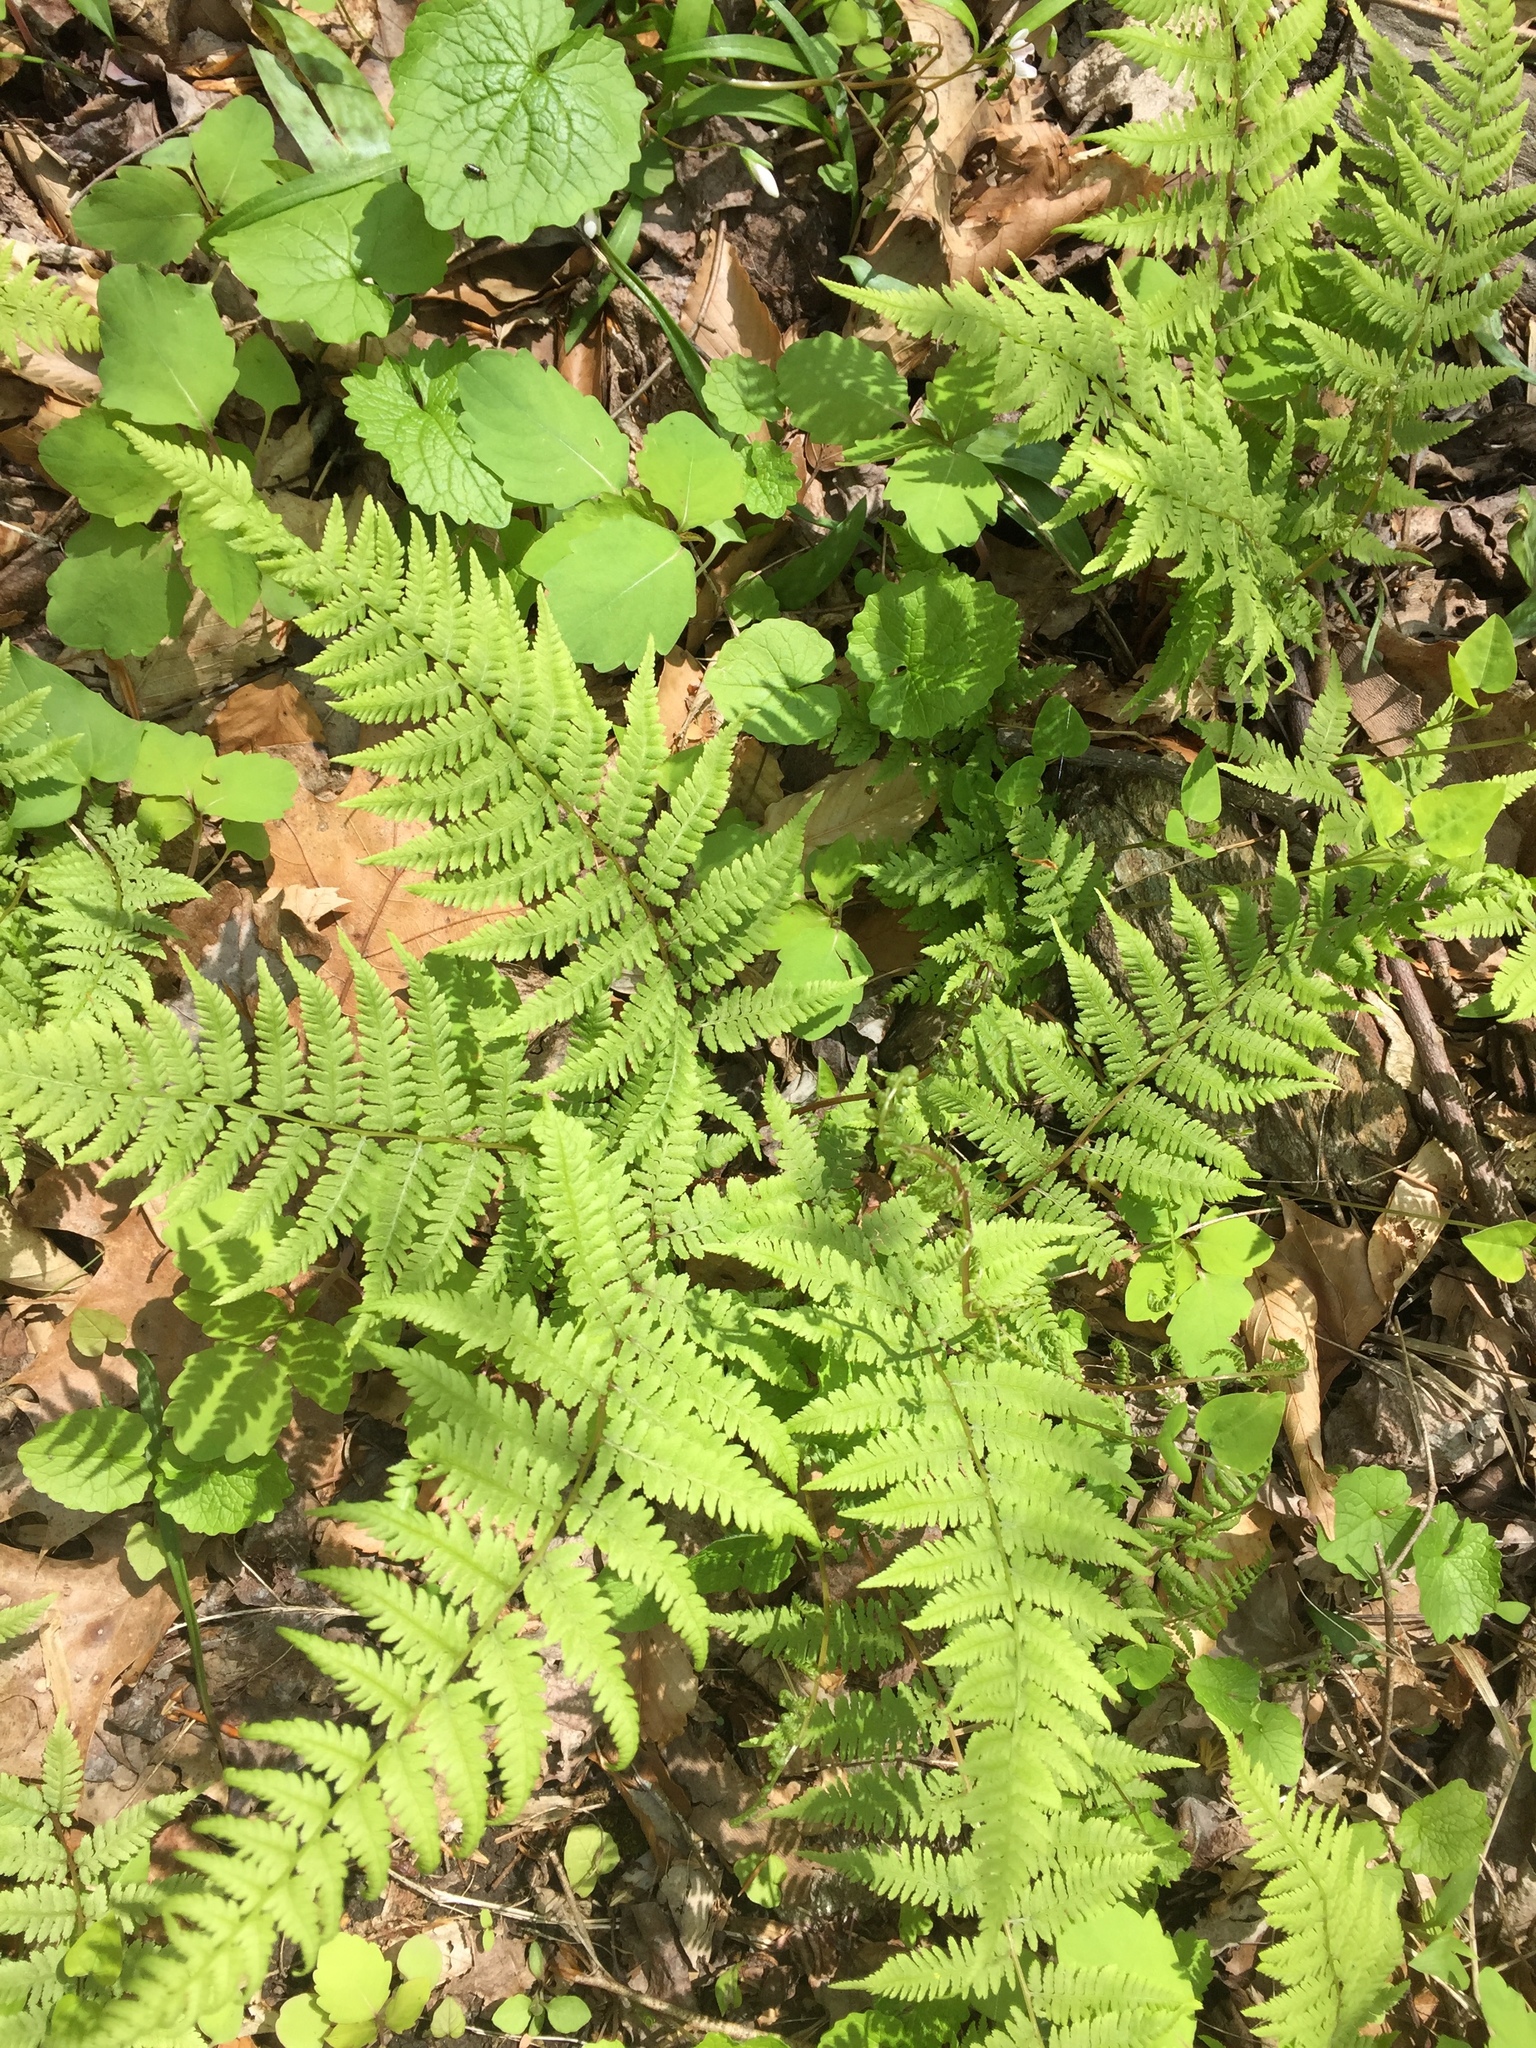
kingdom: Plantae
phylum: Tracheophyta
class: Polypodiopsida
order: Polypodiales
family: Athyriaceae
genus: Athyrium
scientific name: Athyrium asplenioides
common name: Southern lady fern
